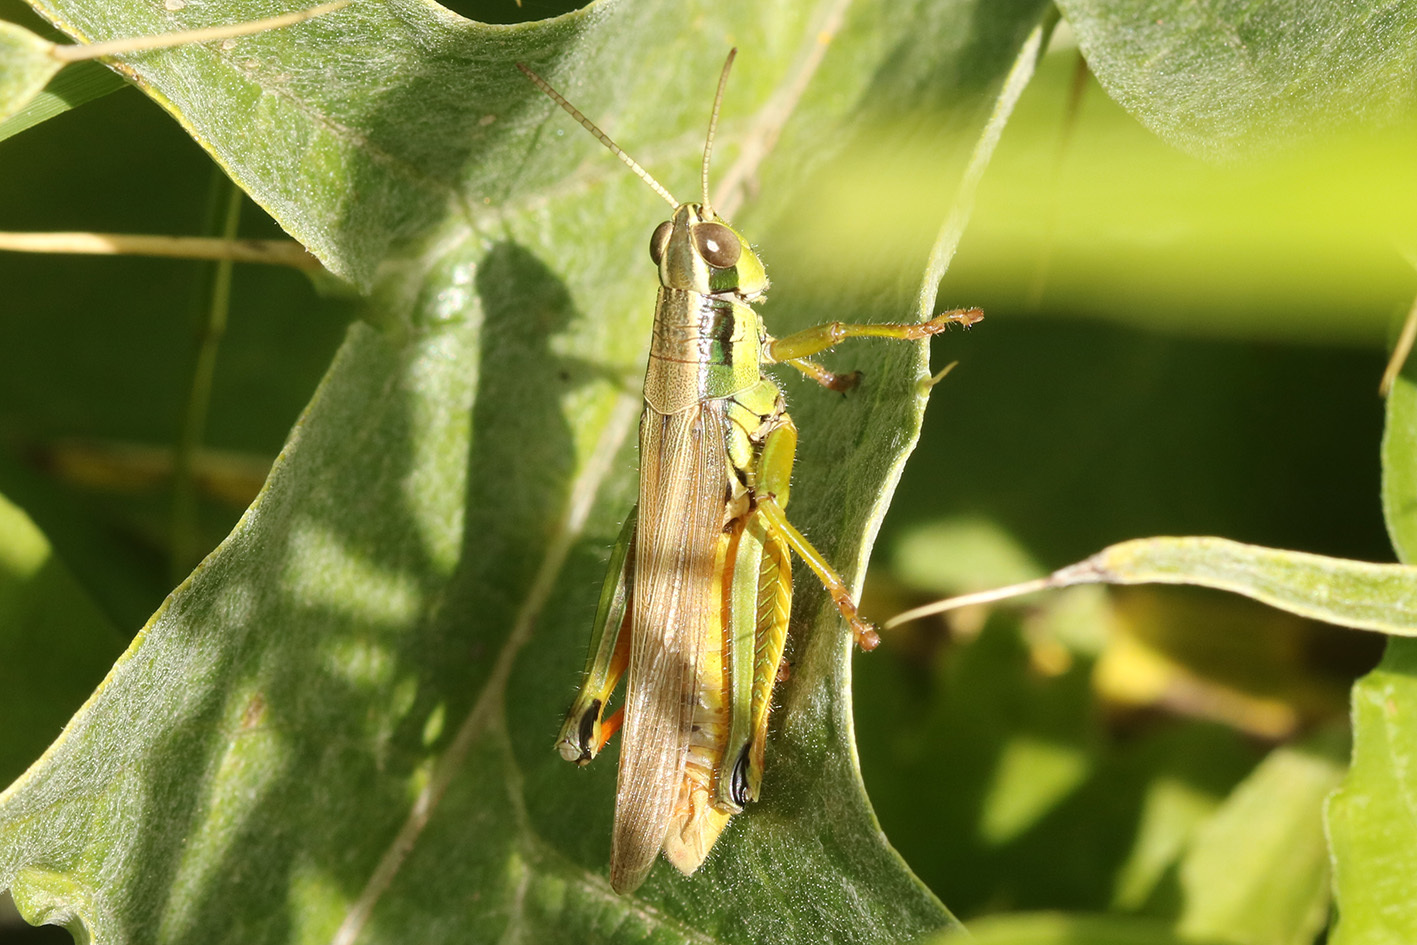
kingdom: Animalia
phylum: Arthropoda
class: Insecta
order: Orthoptera
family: Acrididae
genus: Scotussa
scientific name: Scotussa cliens
